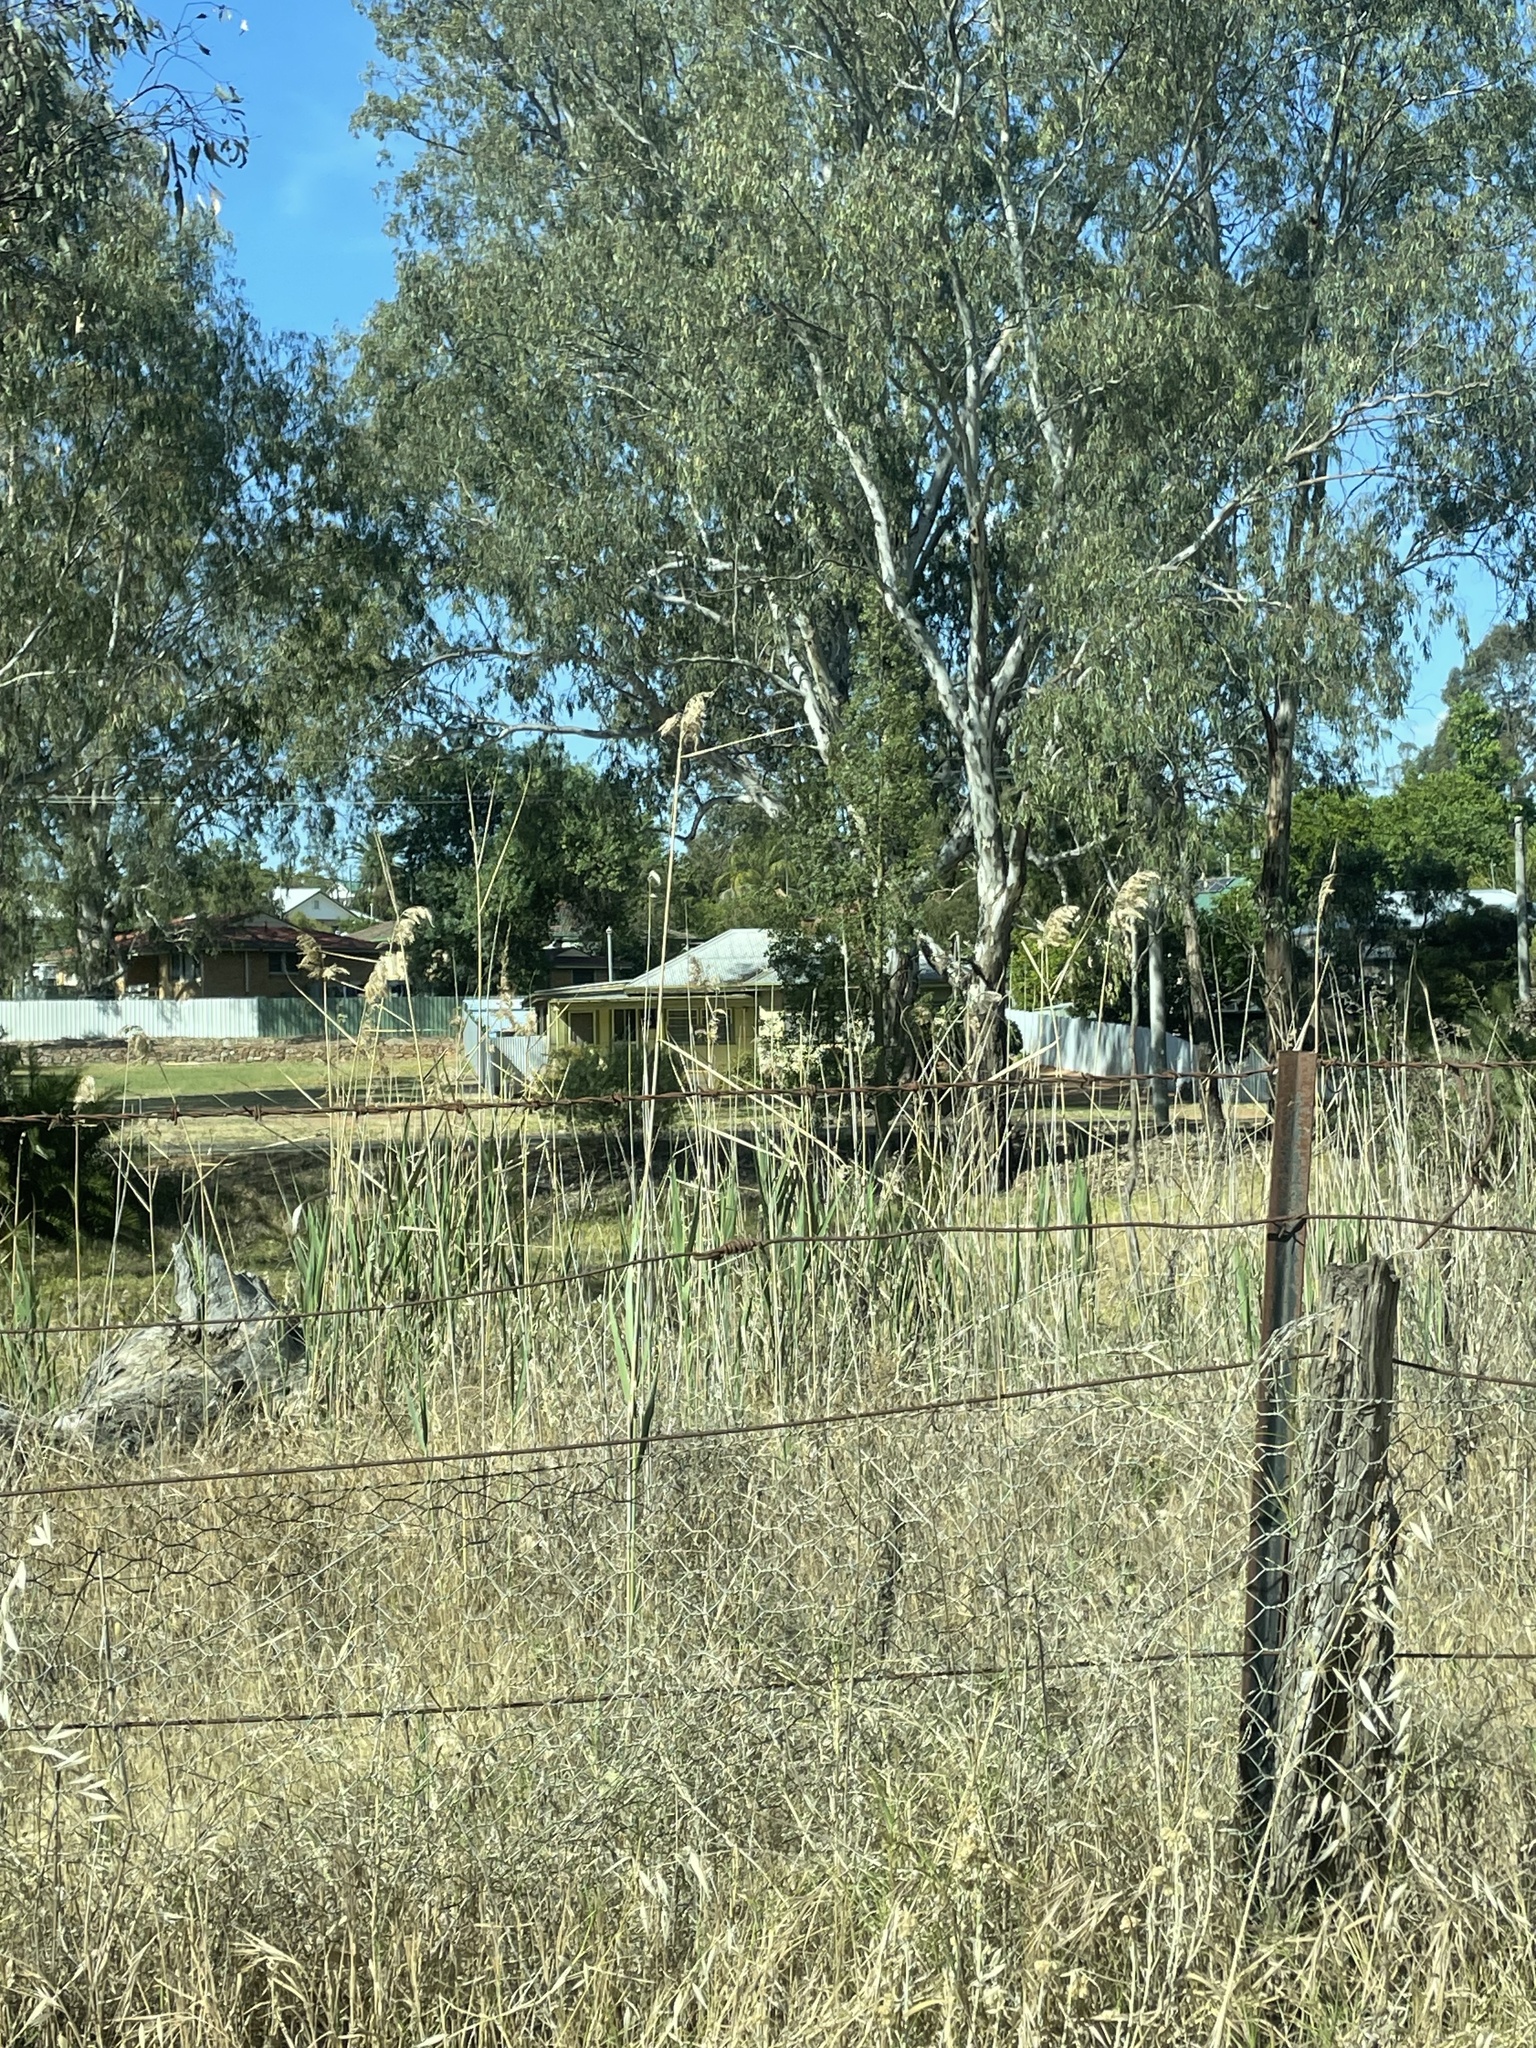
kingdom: Plantae
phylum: Tracheophyta
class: Liliopsida
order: Poales
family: Poaceae
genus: Phragmites
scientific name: Phragmites australis
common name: Common reed
